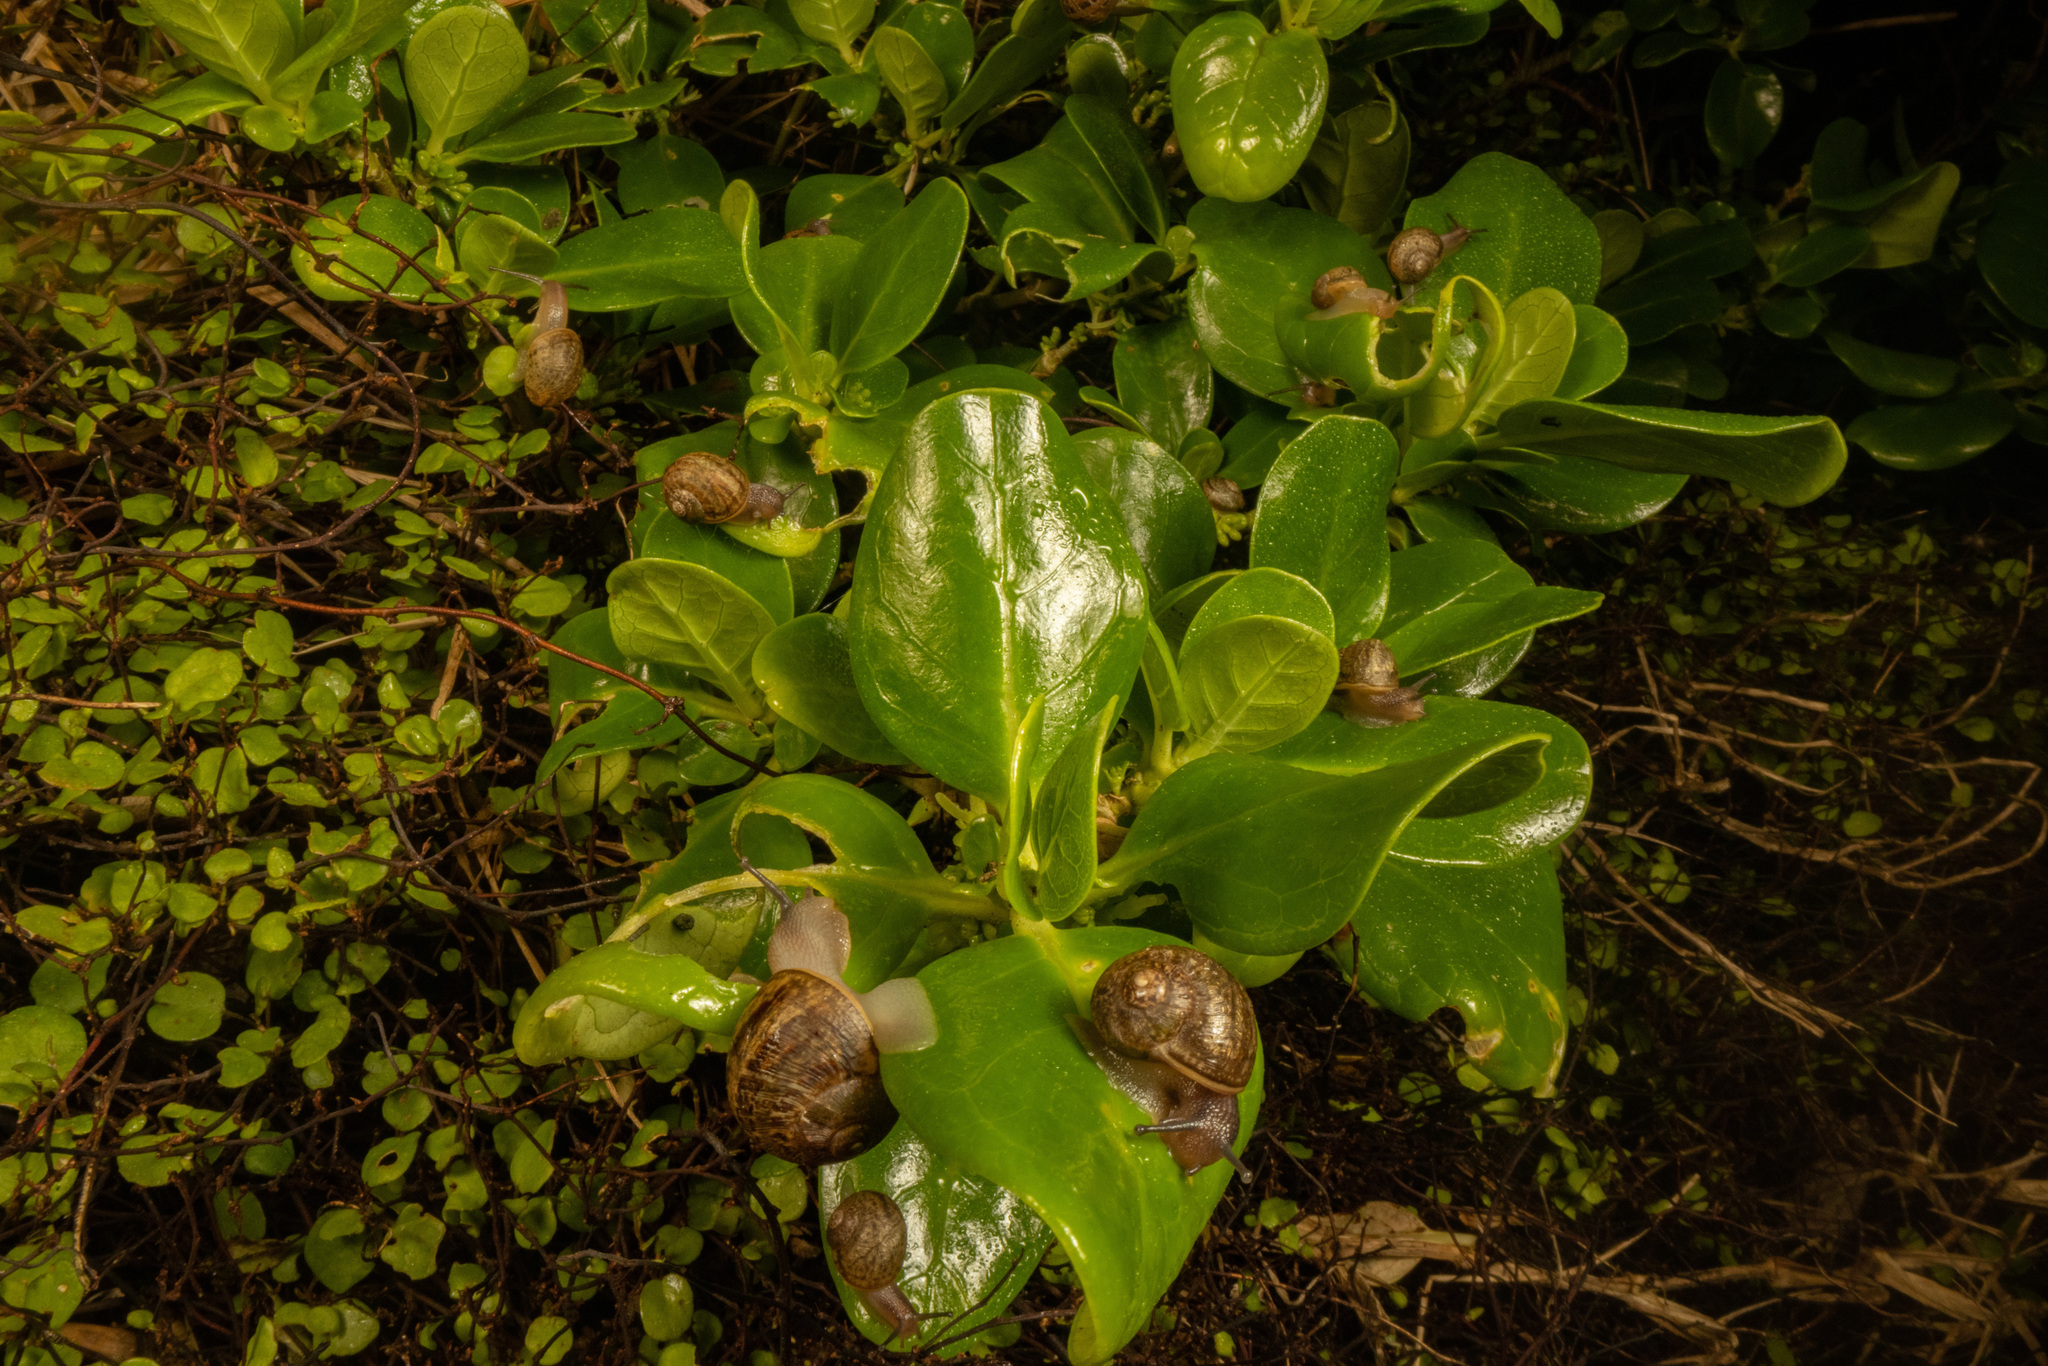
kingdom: Animalia
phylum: Mollusca
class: Gastropoda
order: Stylommatophora
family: Helicidae
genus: Cornu
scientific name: Cornu aspersum
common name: Brown garden snail
